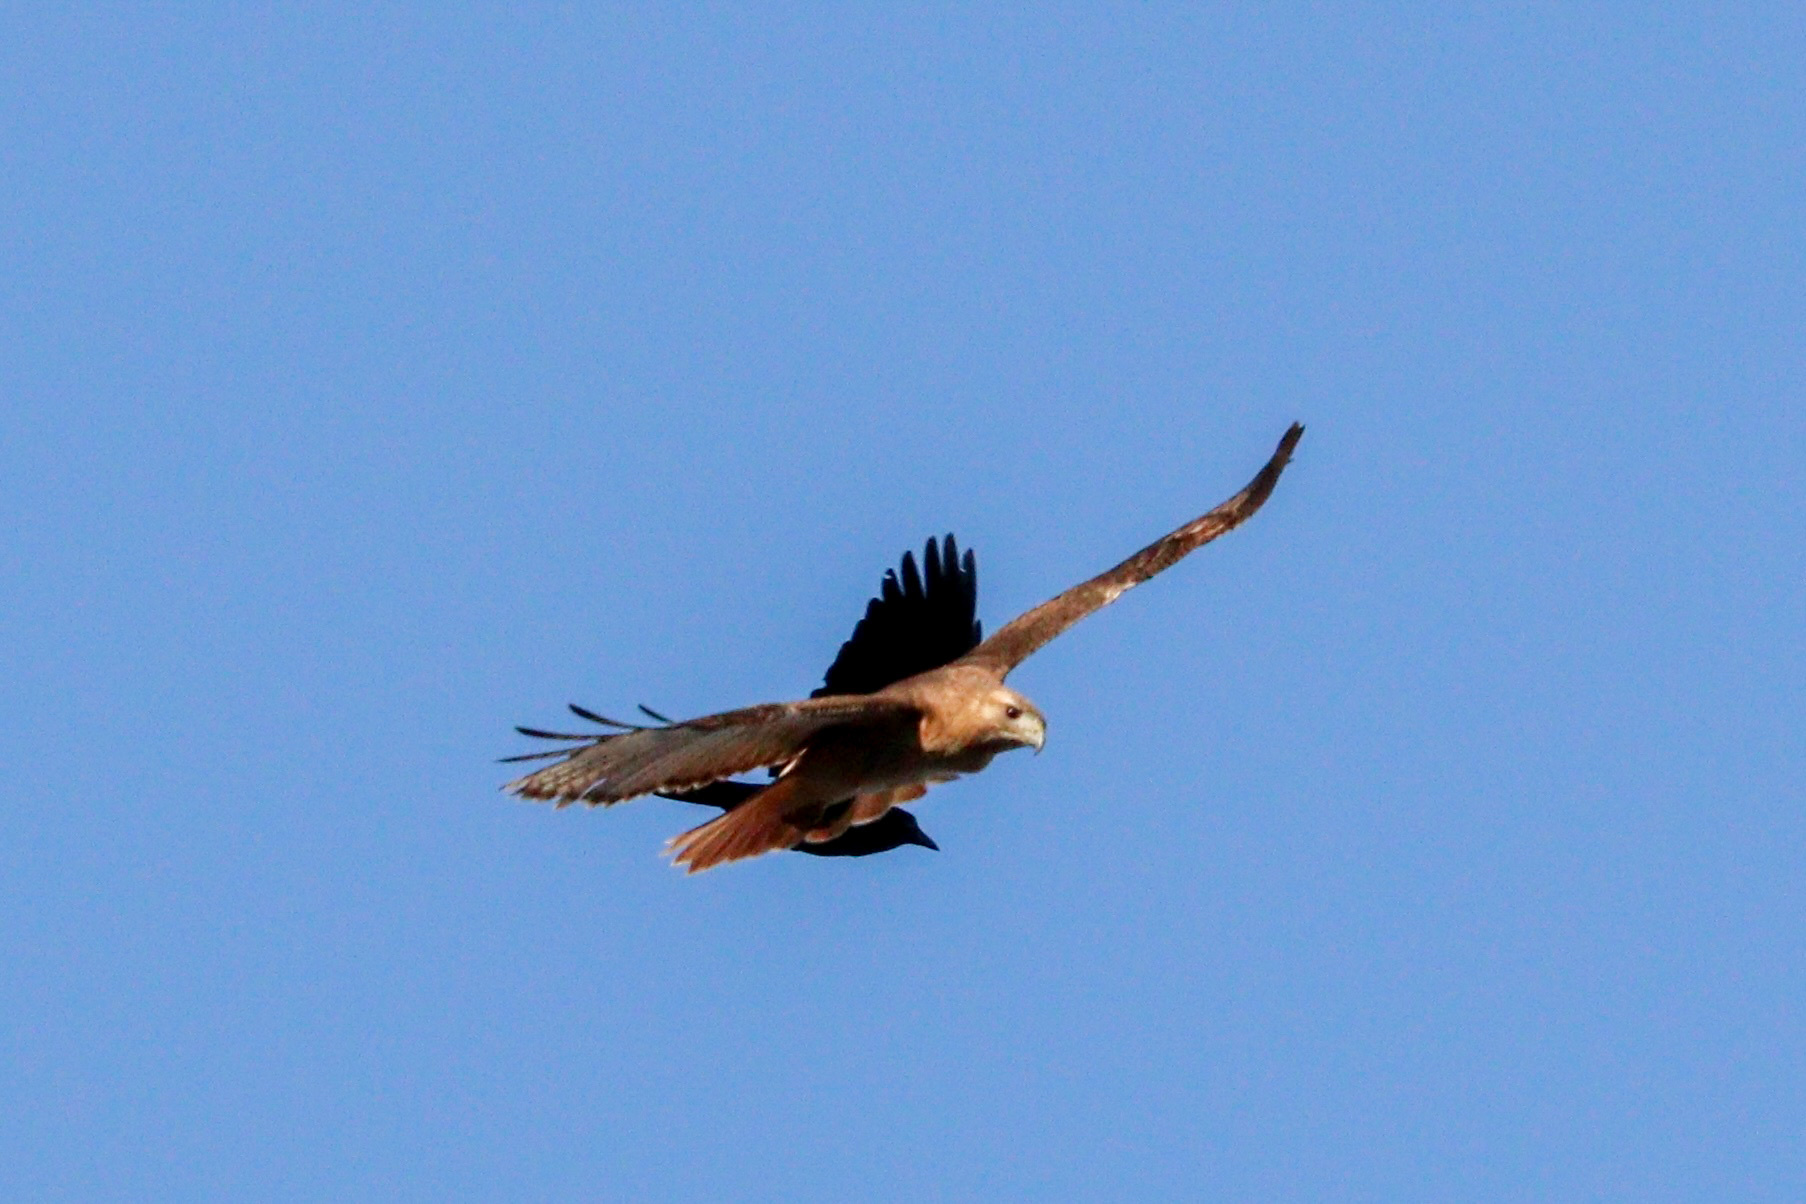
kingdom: Animalia
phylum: Chordata
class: Aves
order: Accipitriformes
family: Accipitridae
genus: Buteo
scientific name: Buteo jamaicensis
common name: Red-tailed hawk
